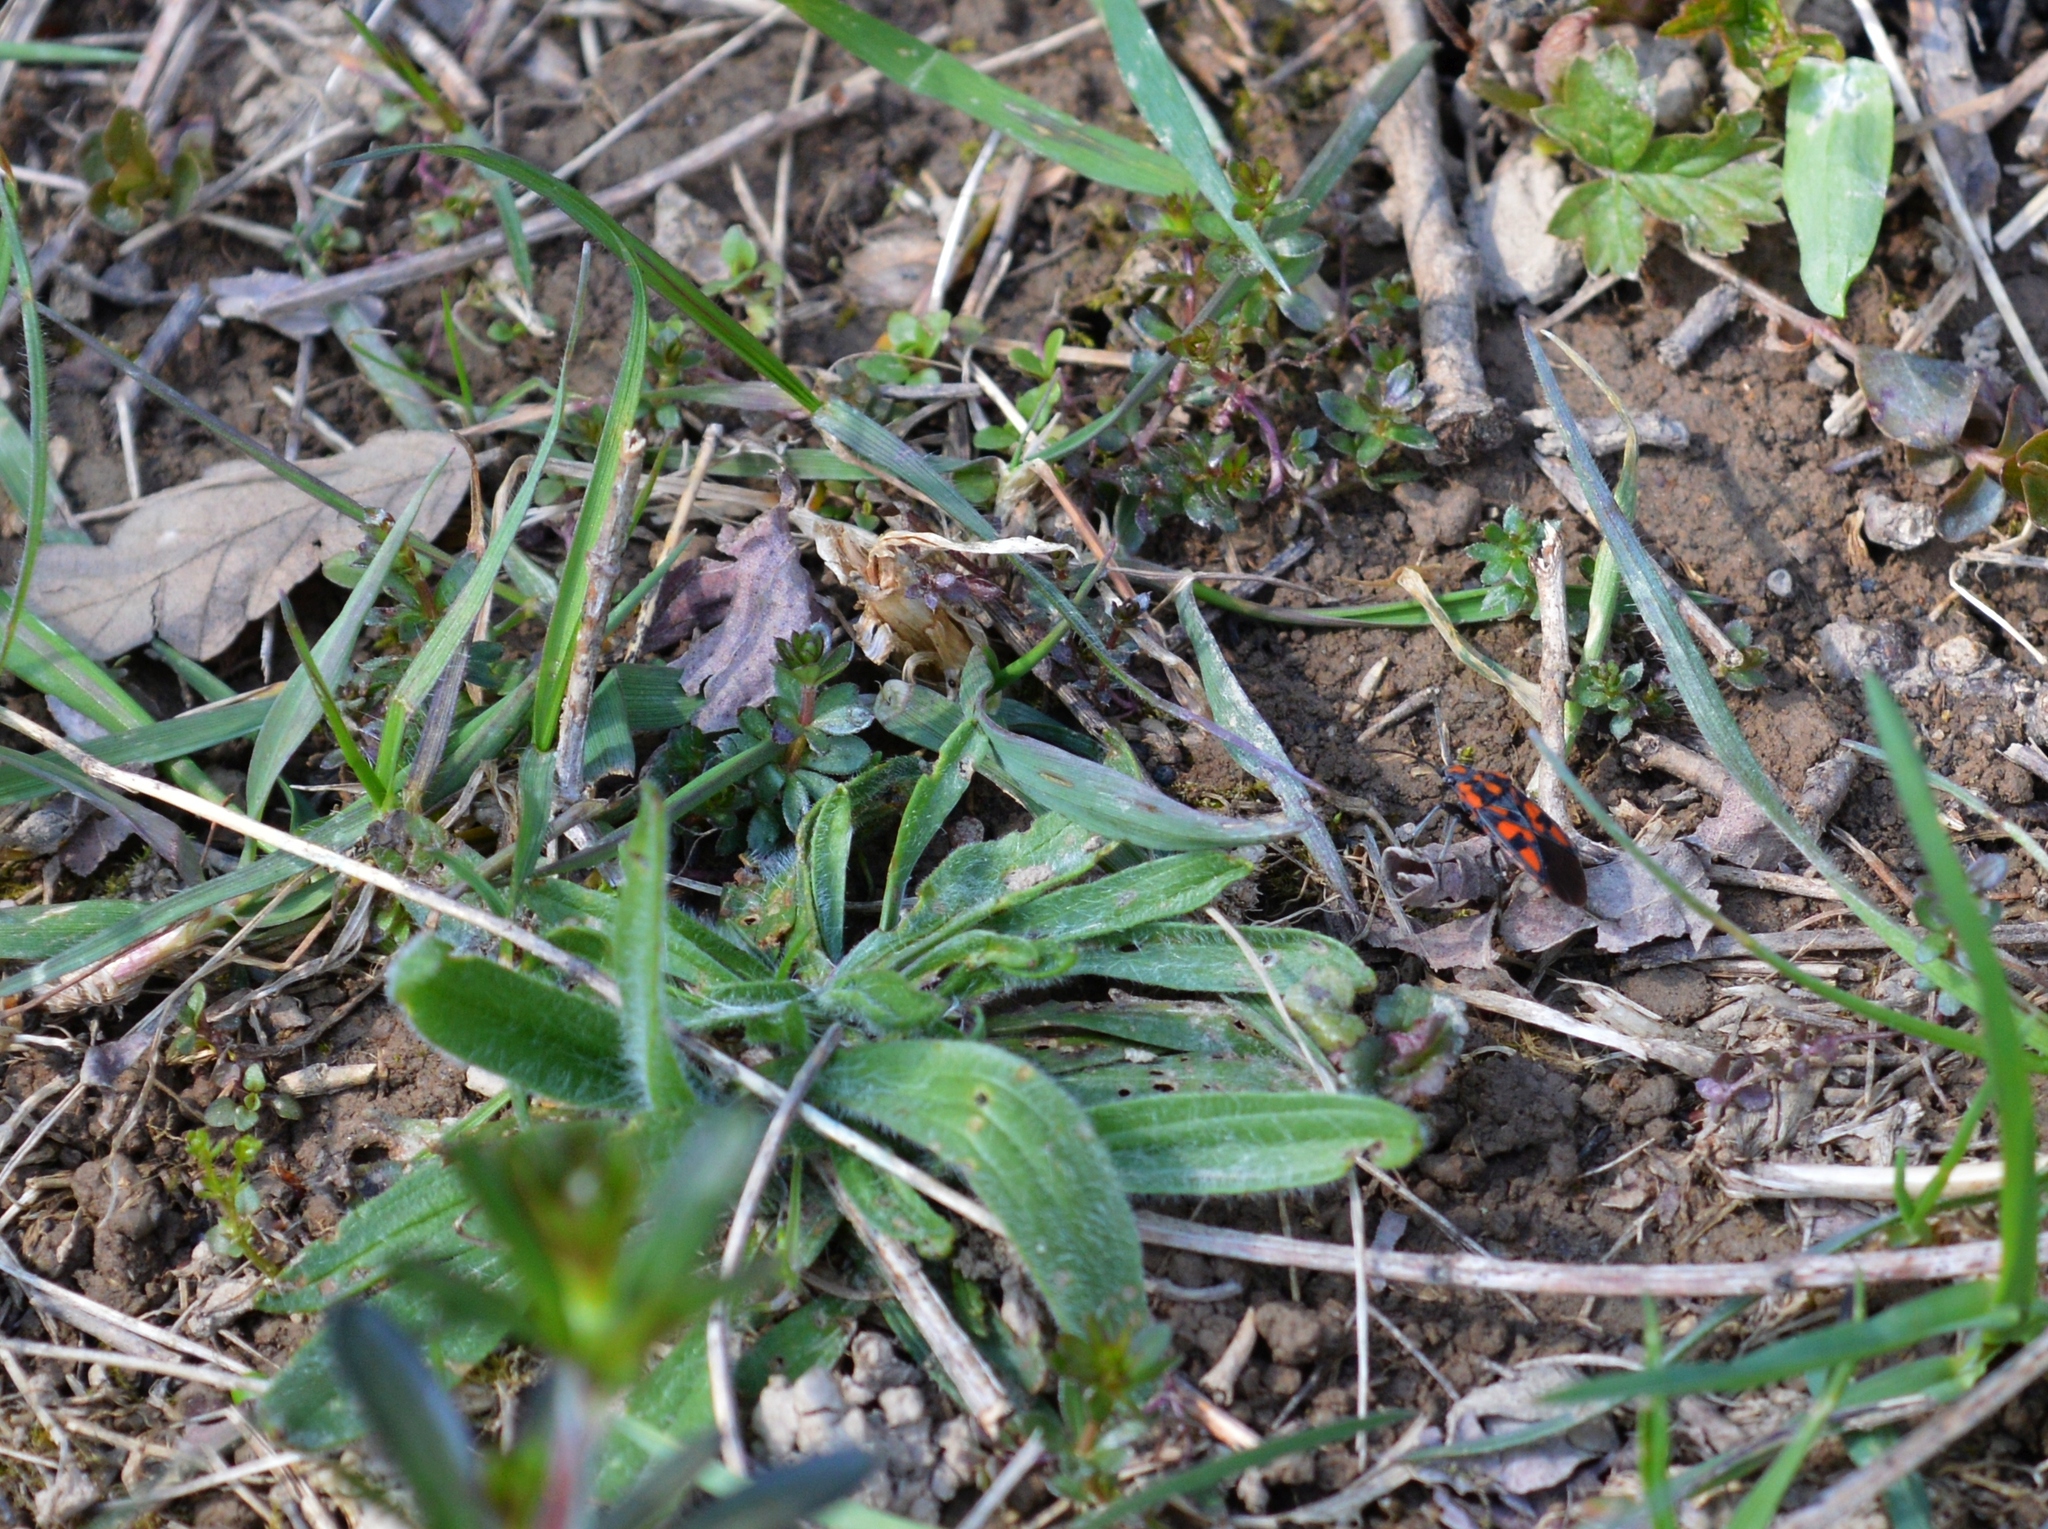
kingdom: Plantae
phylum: Tracheophyta
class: Magnoliopsida
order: Lamiales
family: Plantaginaceae
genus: Plantago
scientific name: Plantago lanceolata
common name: Ribwort plantain
